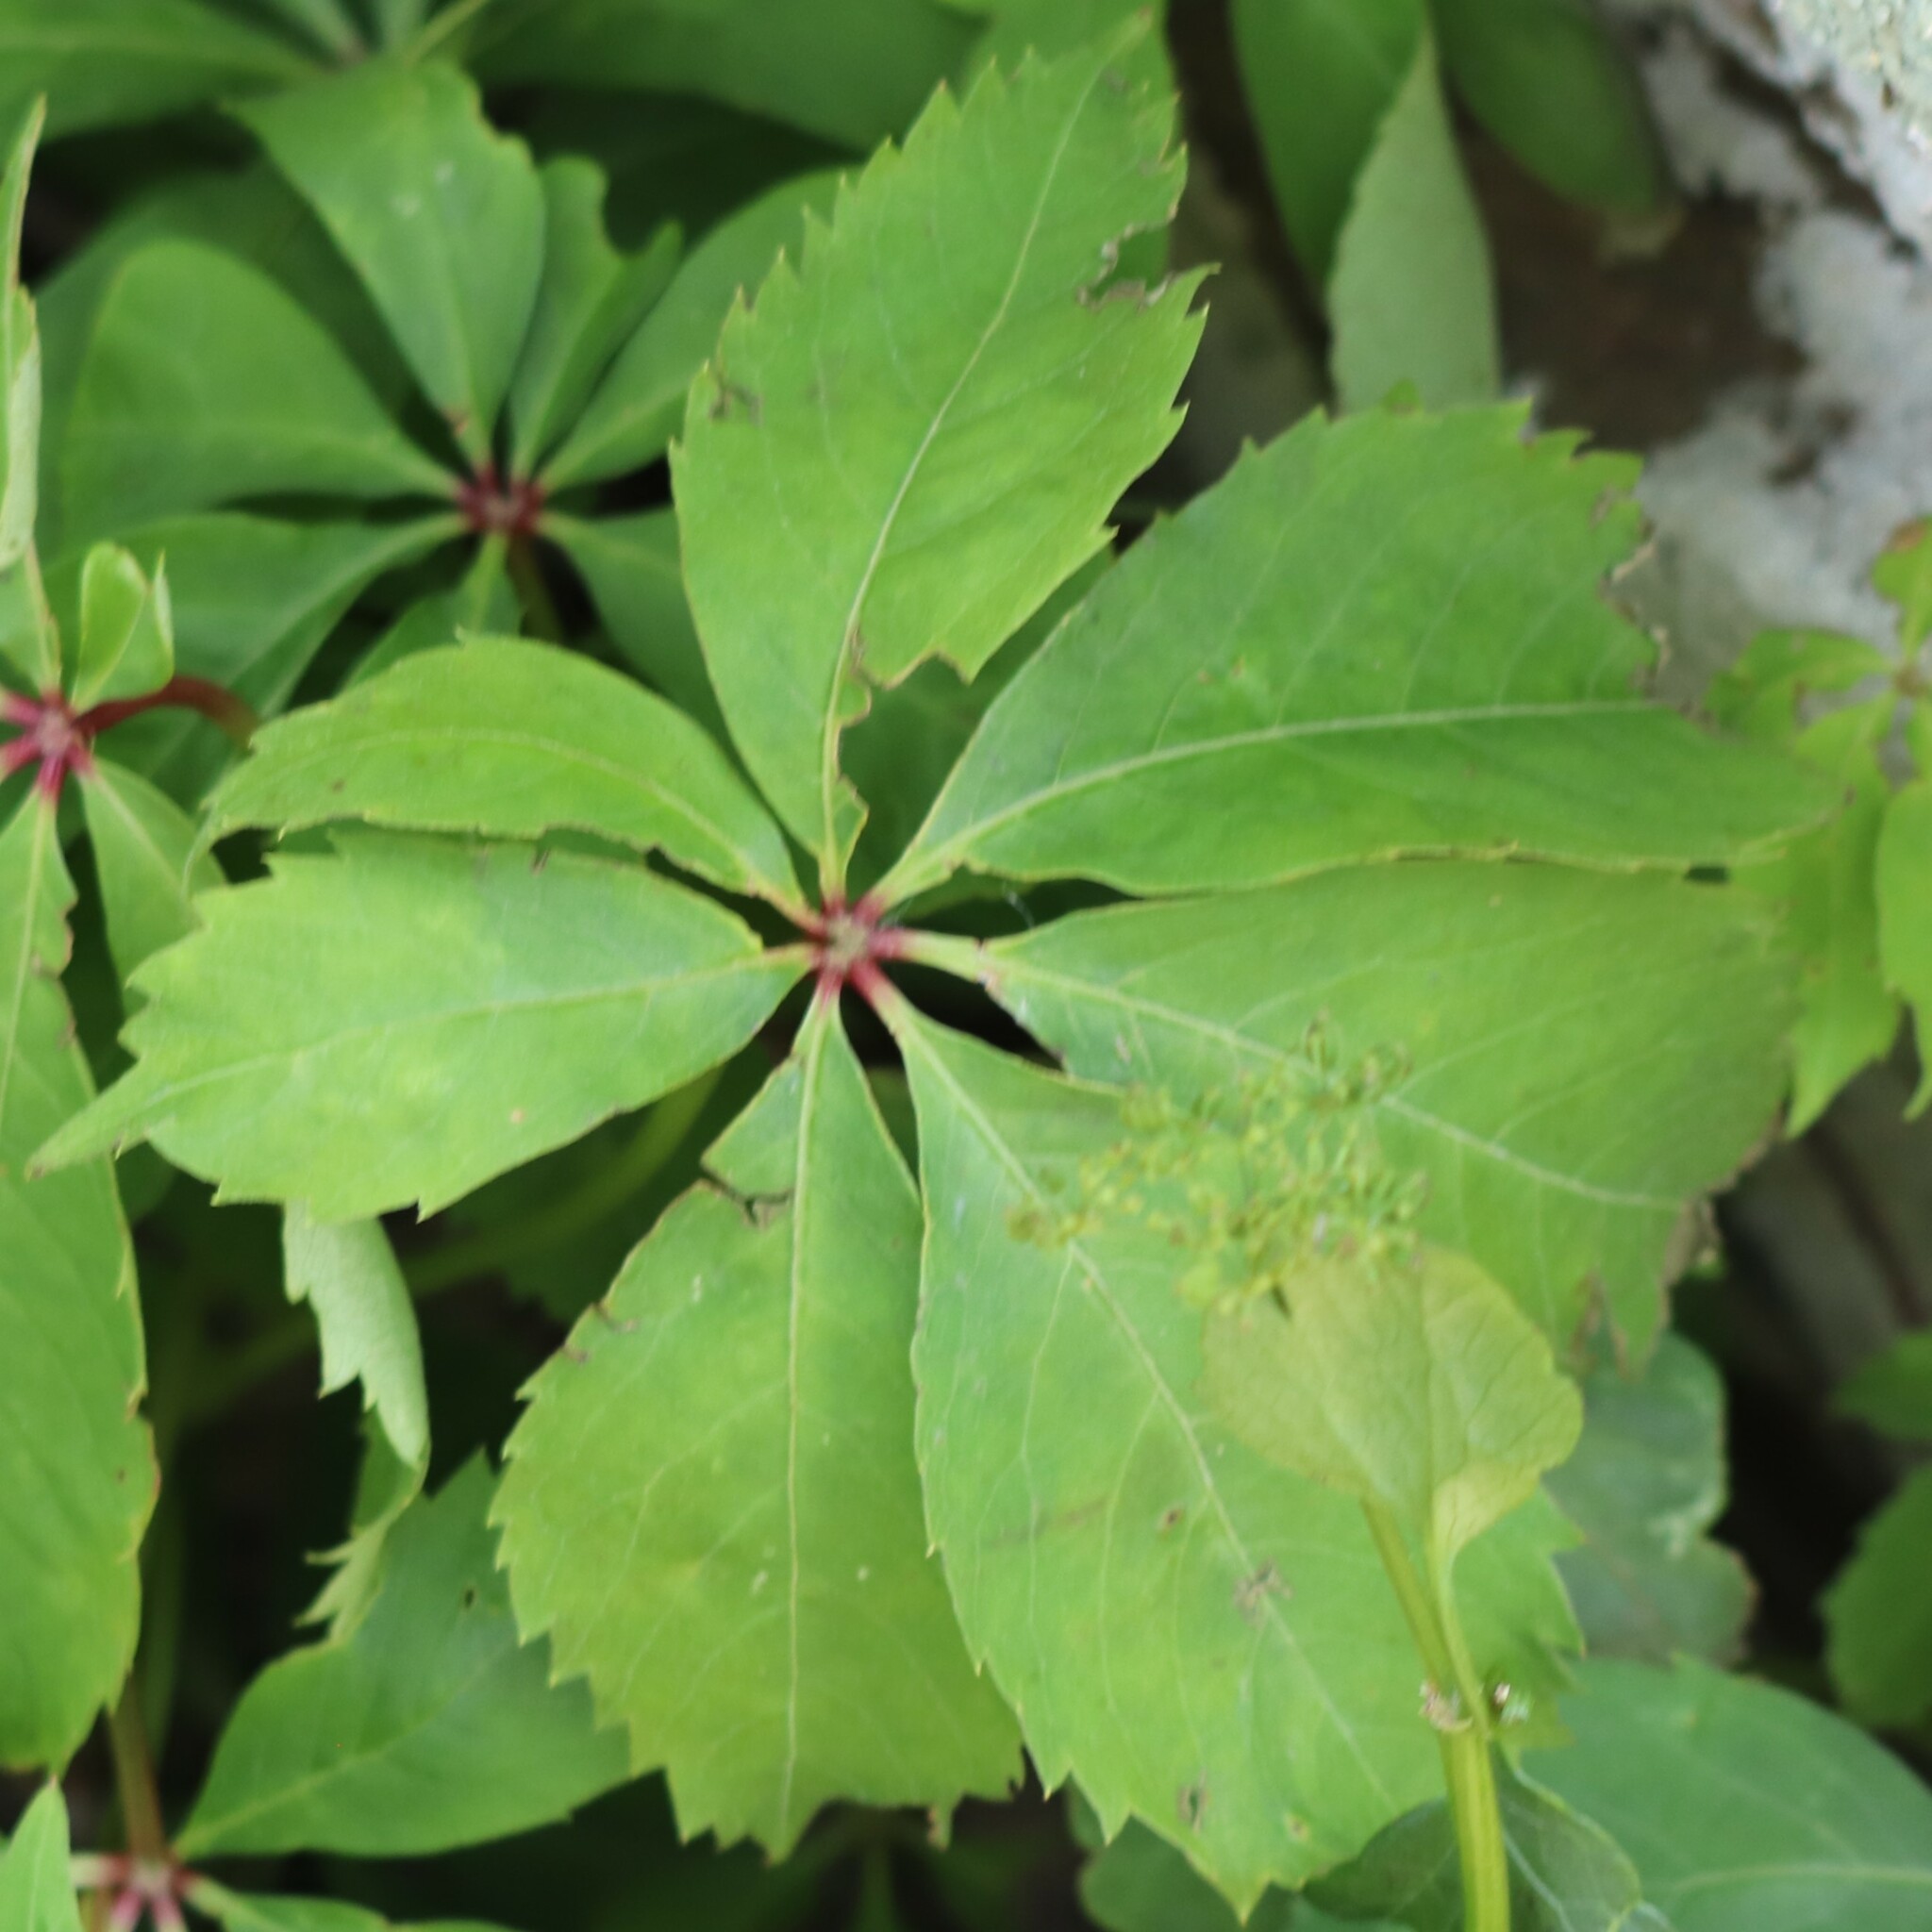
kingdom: Plantae
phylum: Tracheophyta
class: Magnoliopsida
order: Vitales
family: Vitaceae
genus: Parthenocissus
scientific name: Parthenocissus quinquefolia
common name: Virginia-creeper
